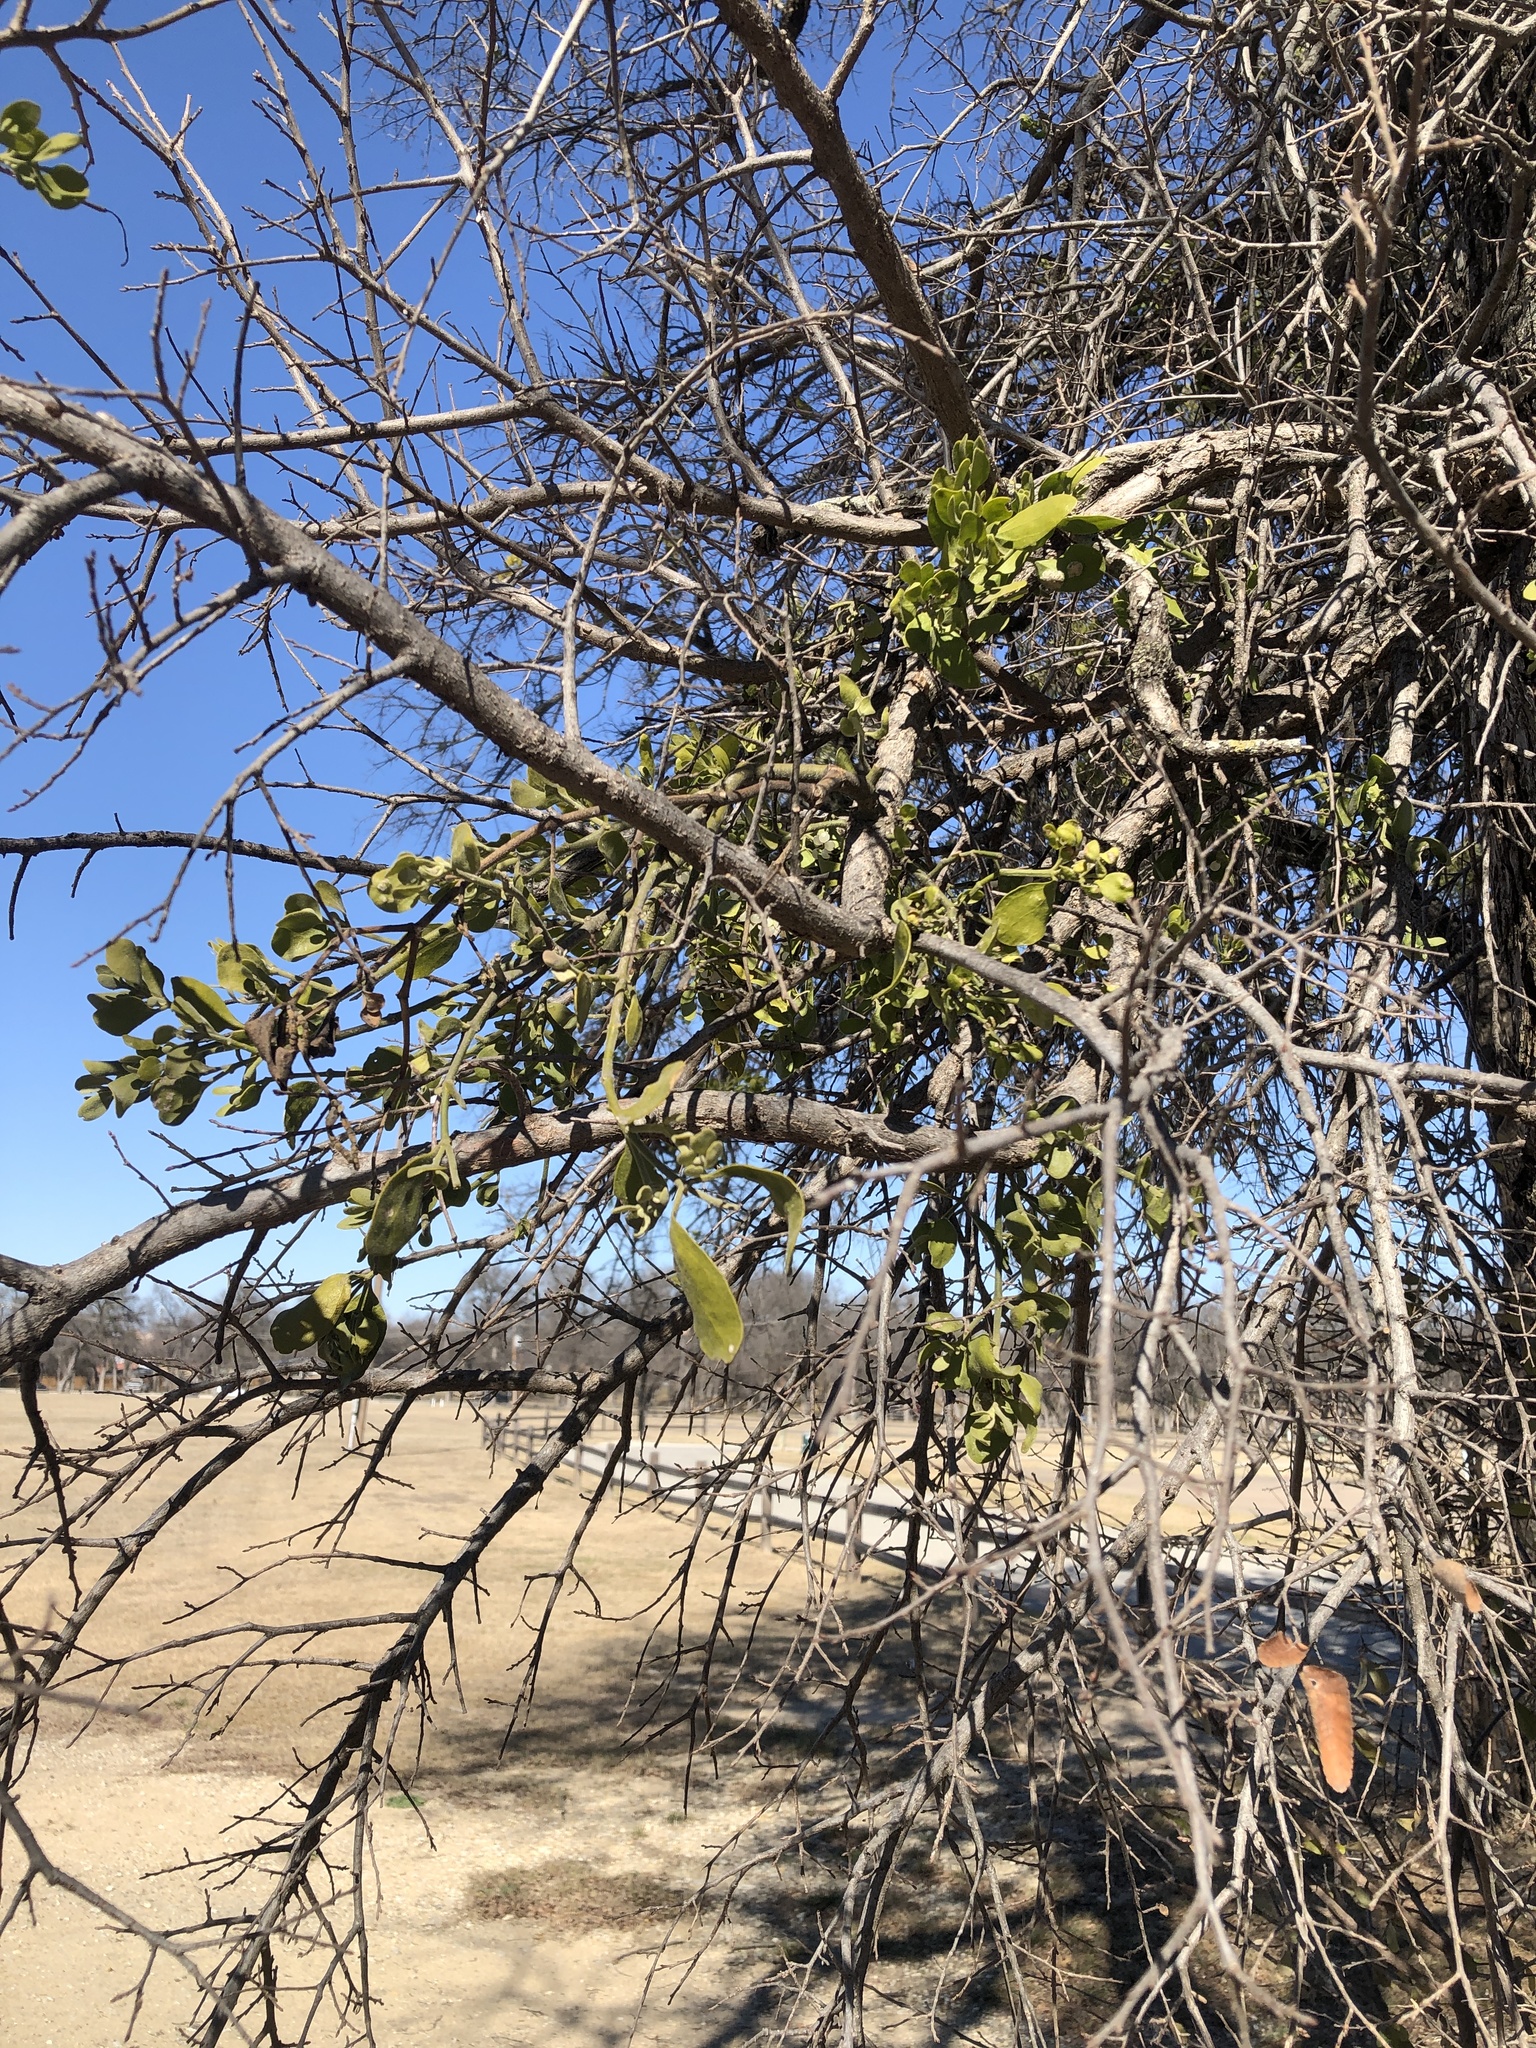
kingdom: Plantae
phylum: Tracheophyta
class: Magnoliopsida
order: Santalales
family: Viscaceae
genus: Phoradendron
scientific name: Phoradendron leucarpum
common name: Pacific mistletoe
